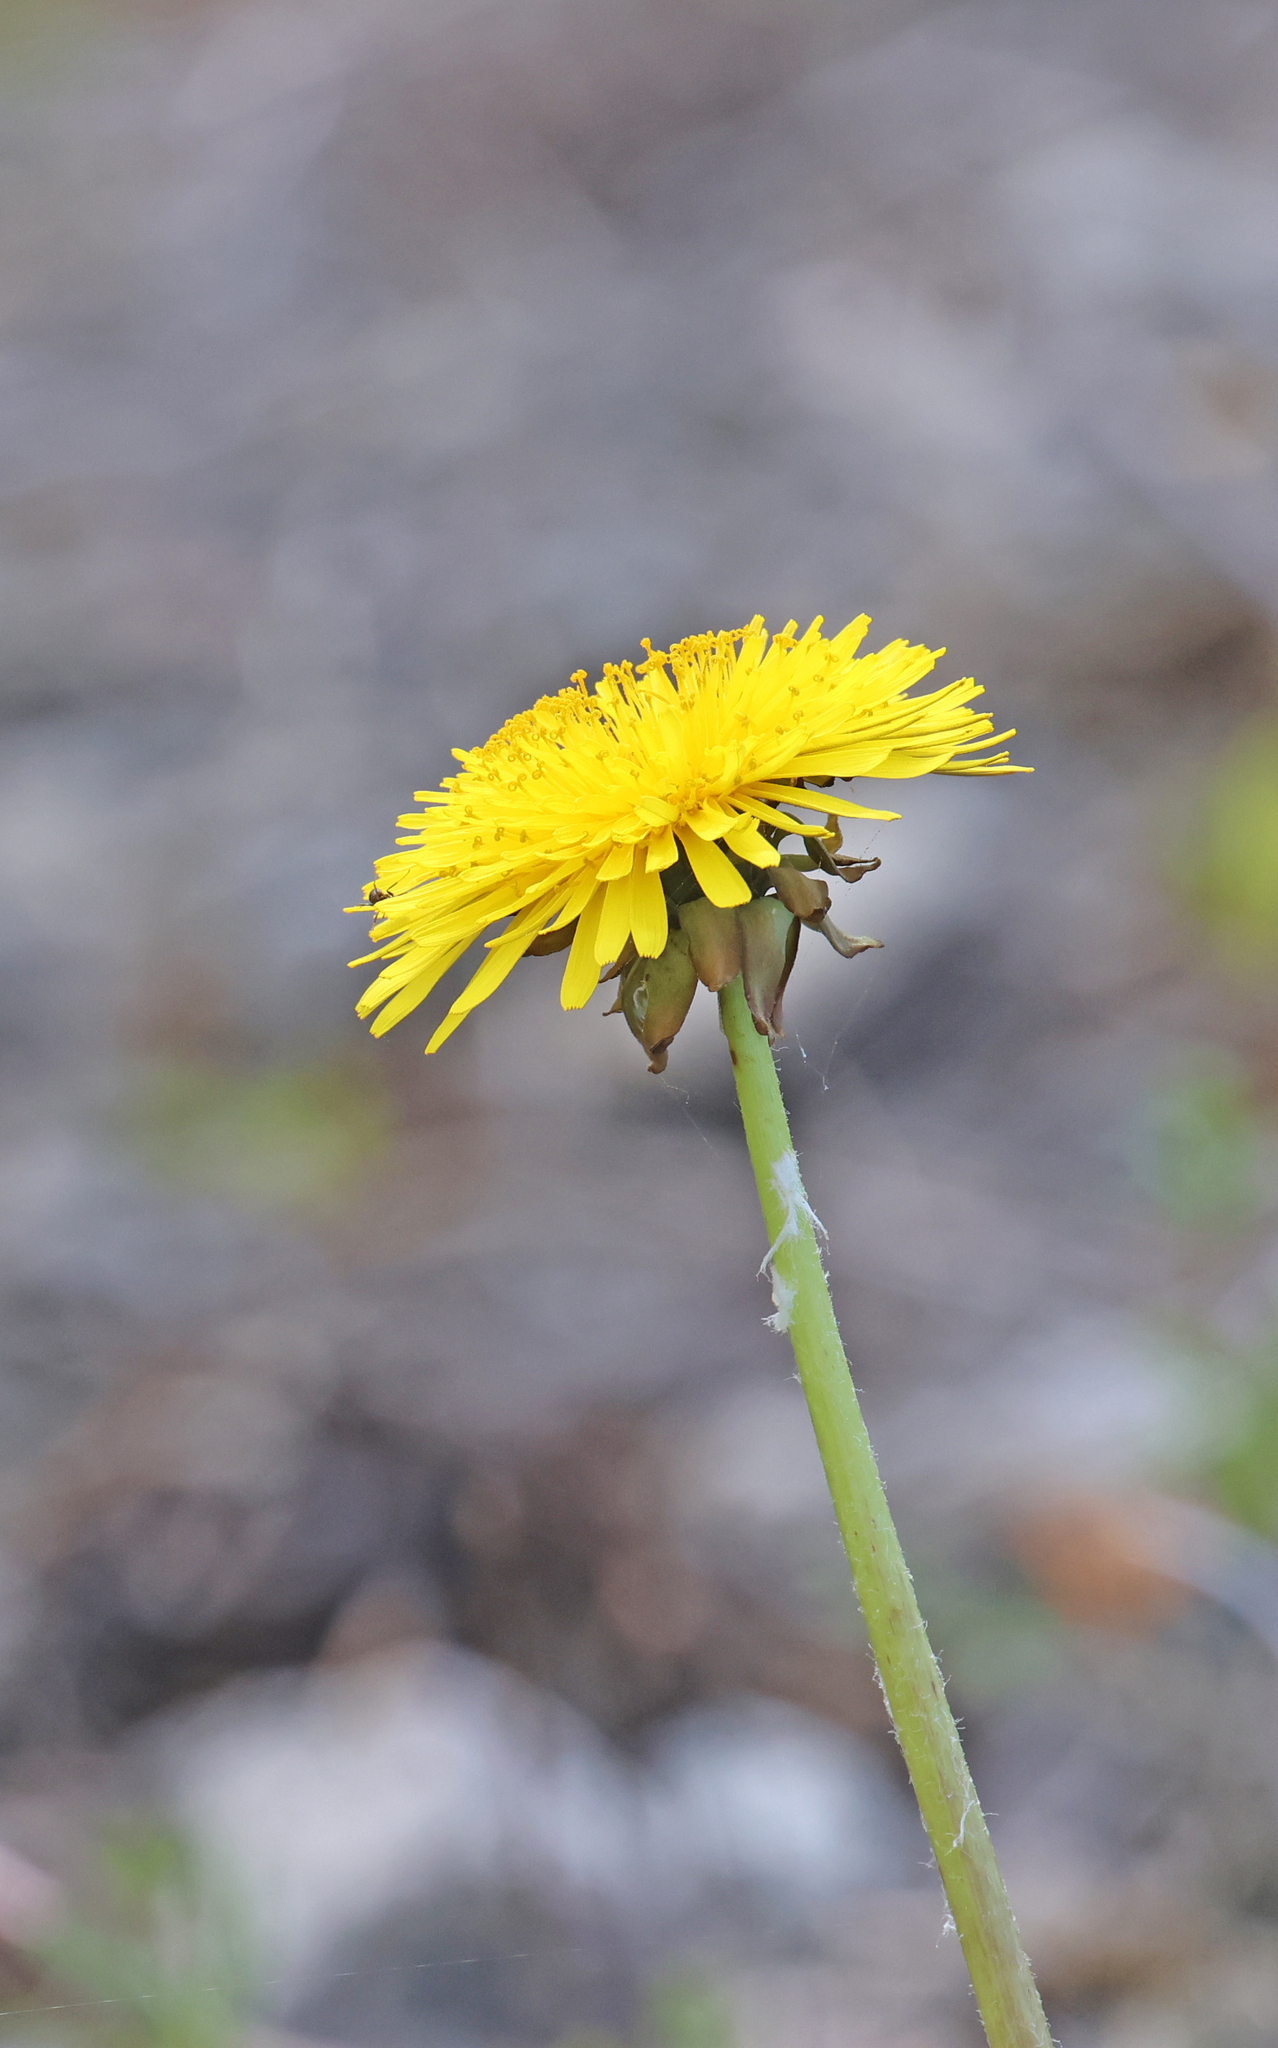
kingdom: Plantae
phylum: Tracheophyta
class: Magnoliopsida
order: Asterales
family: Asteraceae
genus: Taraxacum
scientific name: Taraxacum officinale
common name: Common dandelion
